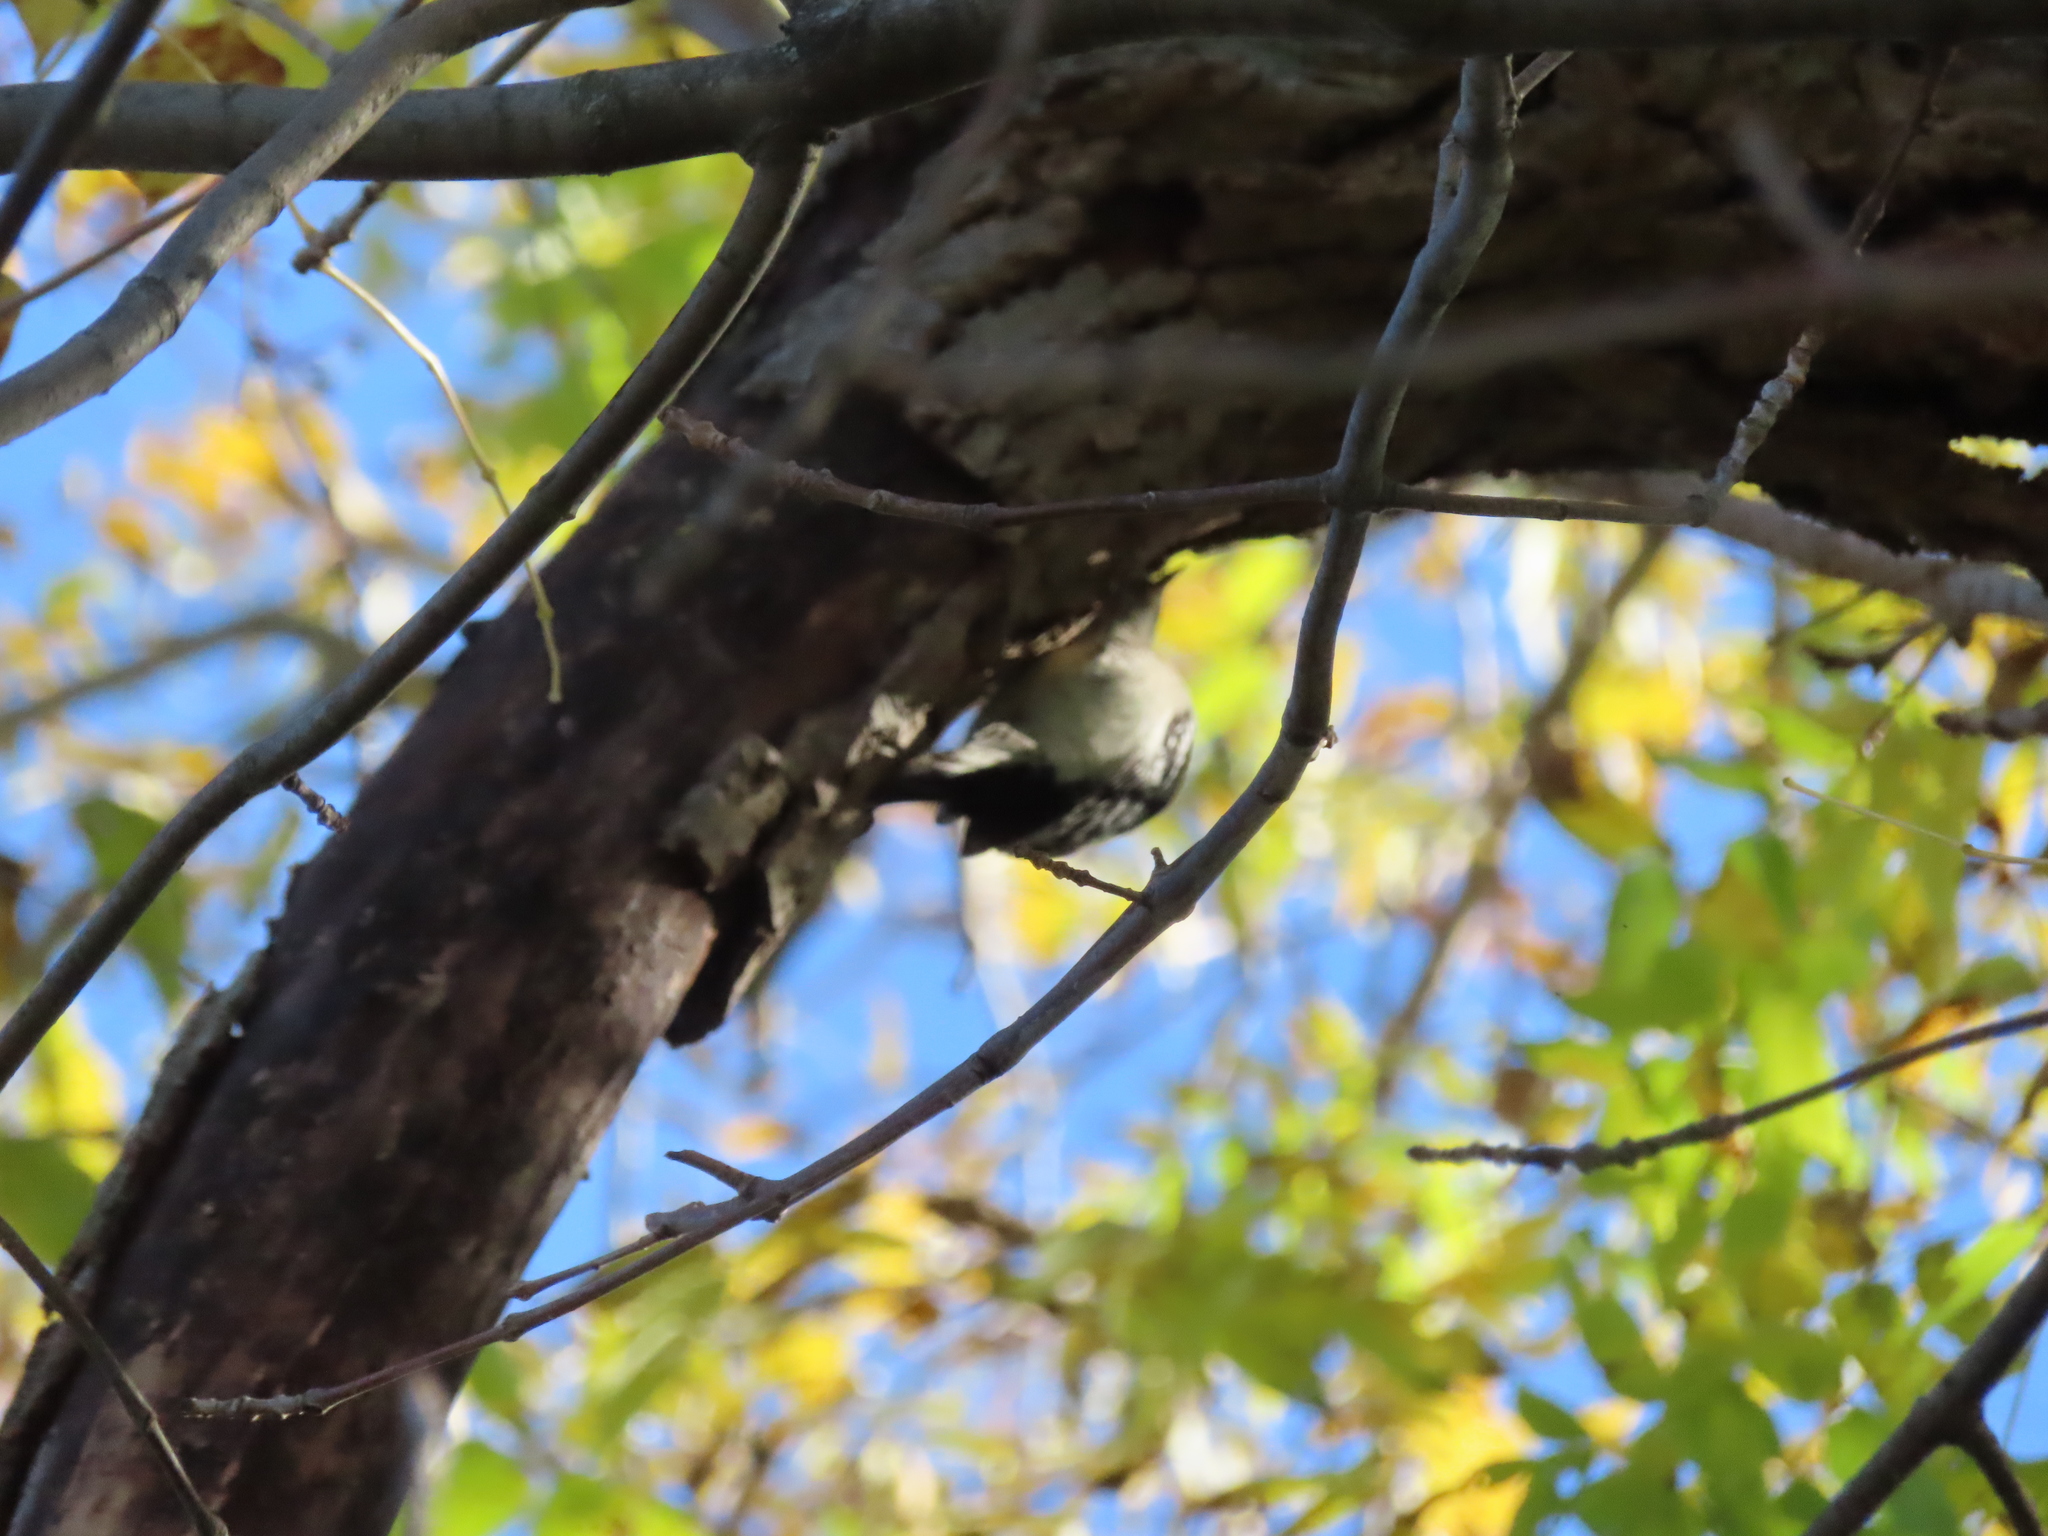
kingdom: Animalia
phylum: Chordata
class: Aves
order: Piciformes
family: Picidae
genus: Dryobates
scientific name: Dryobates pubescens
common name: Downy woodpecker
